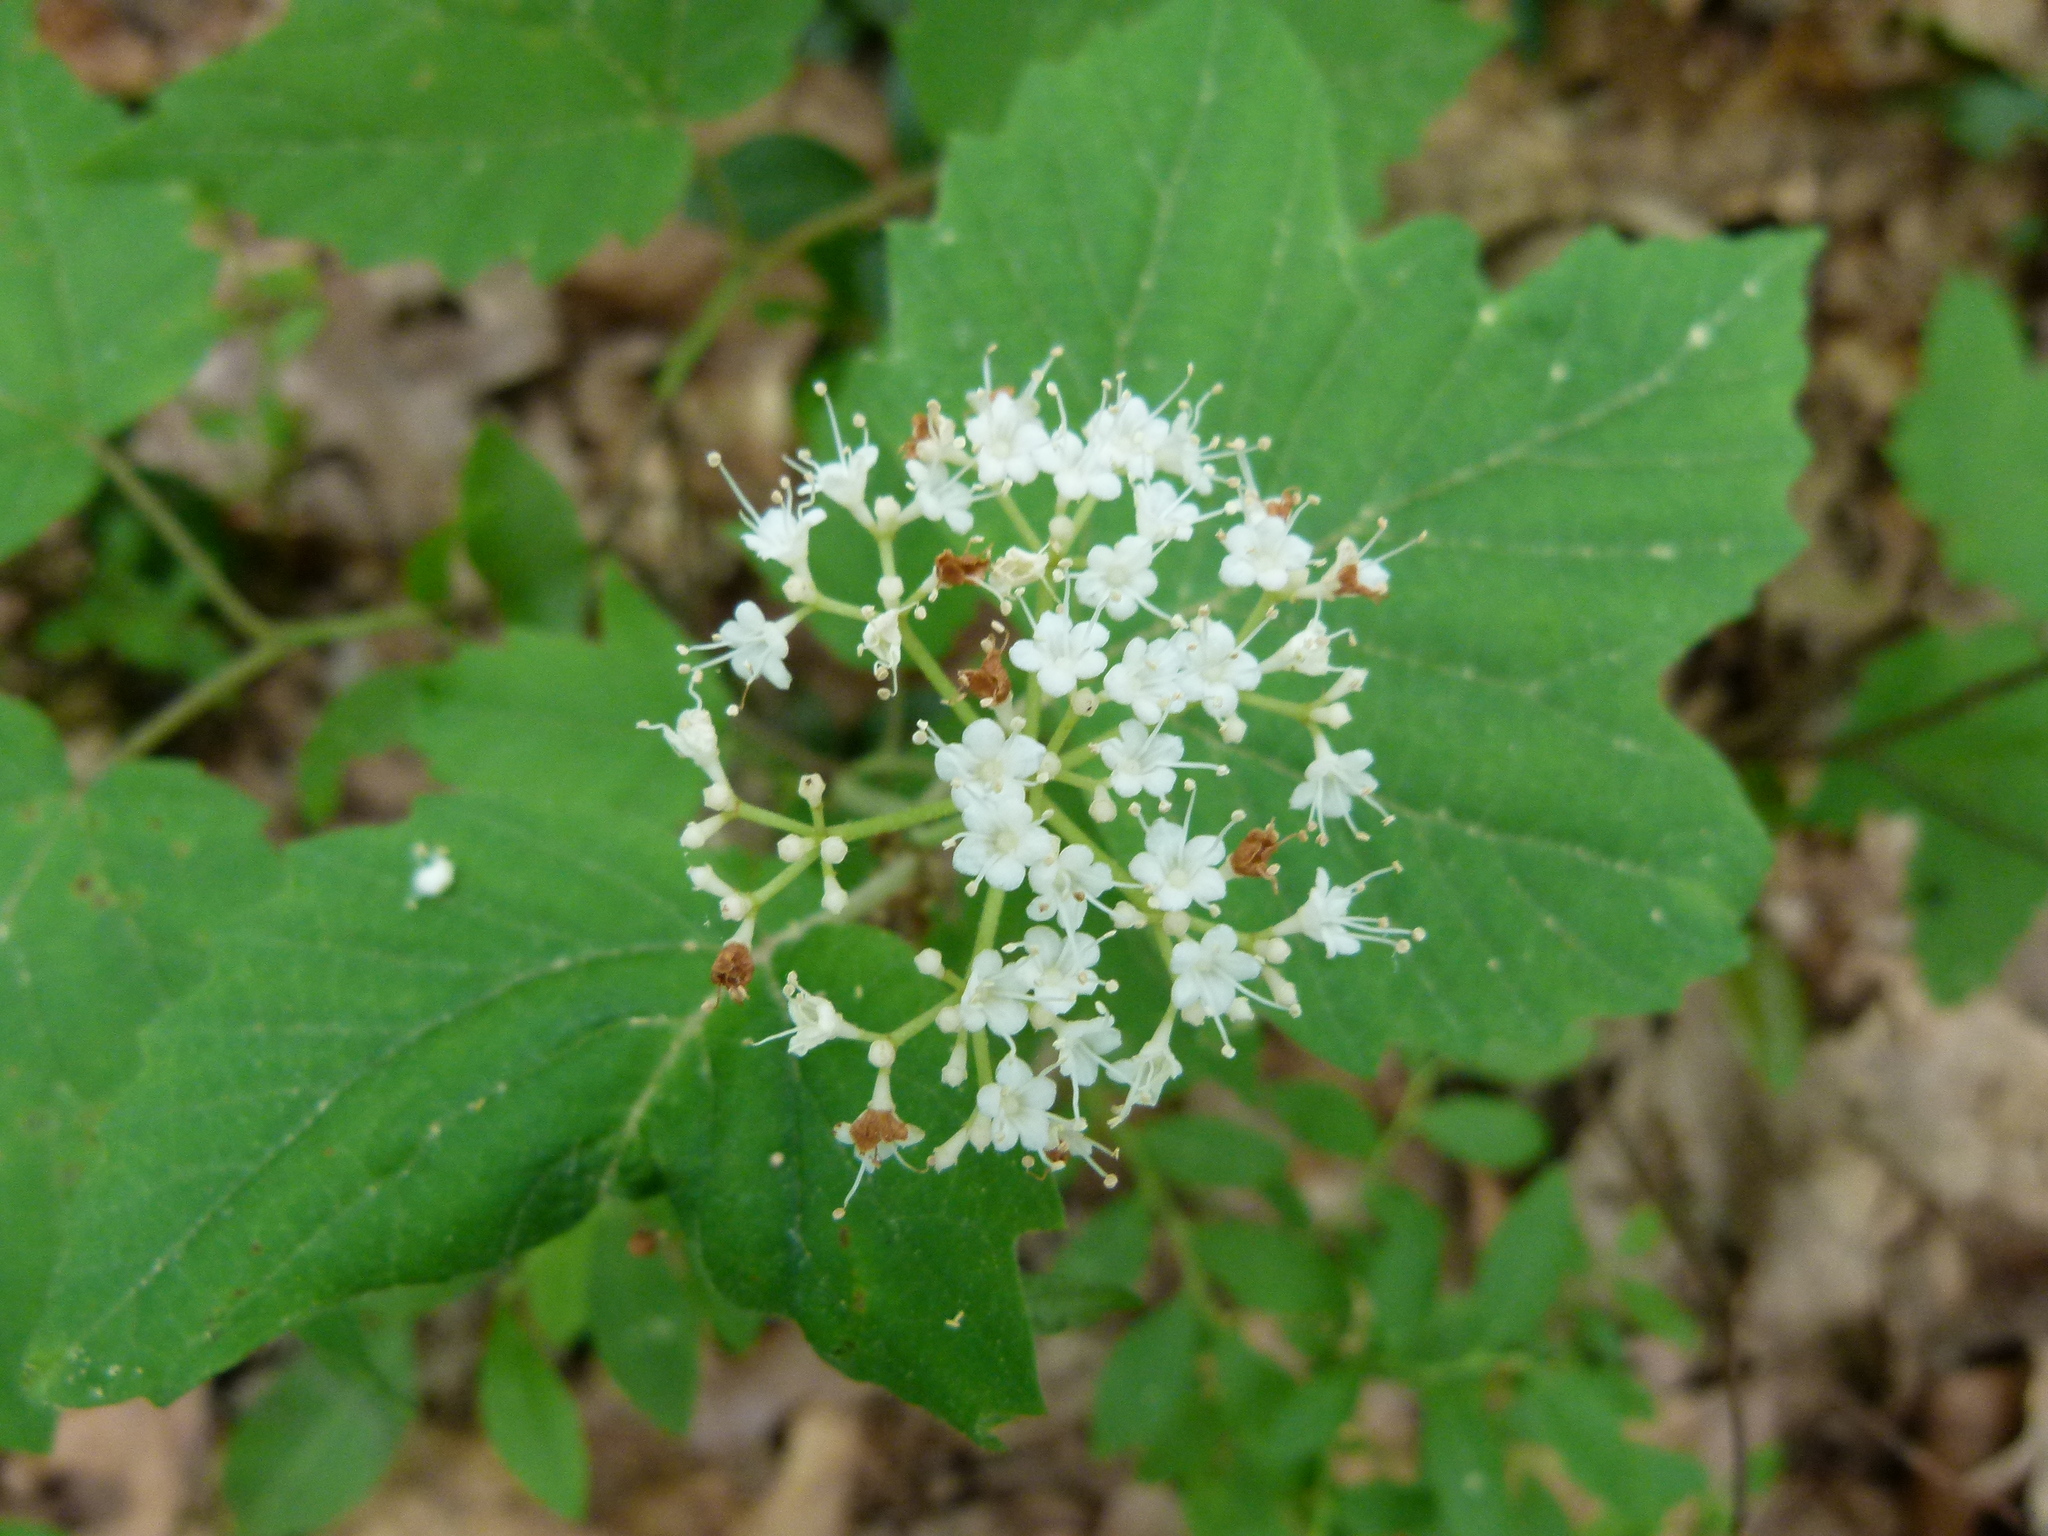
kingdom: Plantae
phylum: Tracheophyta
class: Magnoliopsida
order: Dipsacales
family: Viburnaceae
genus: Viburnum
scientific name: Viburnum acerifolium
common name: Dockmackie
